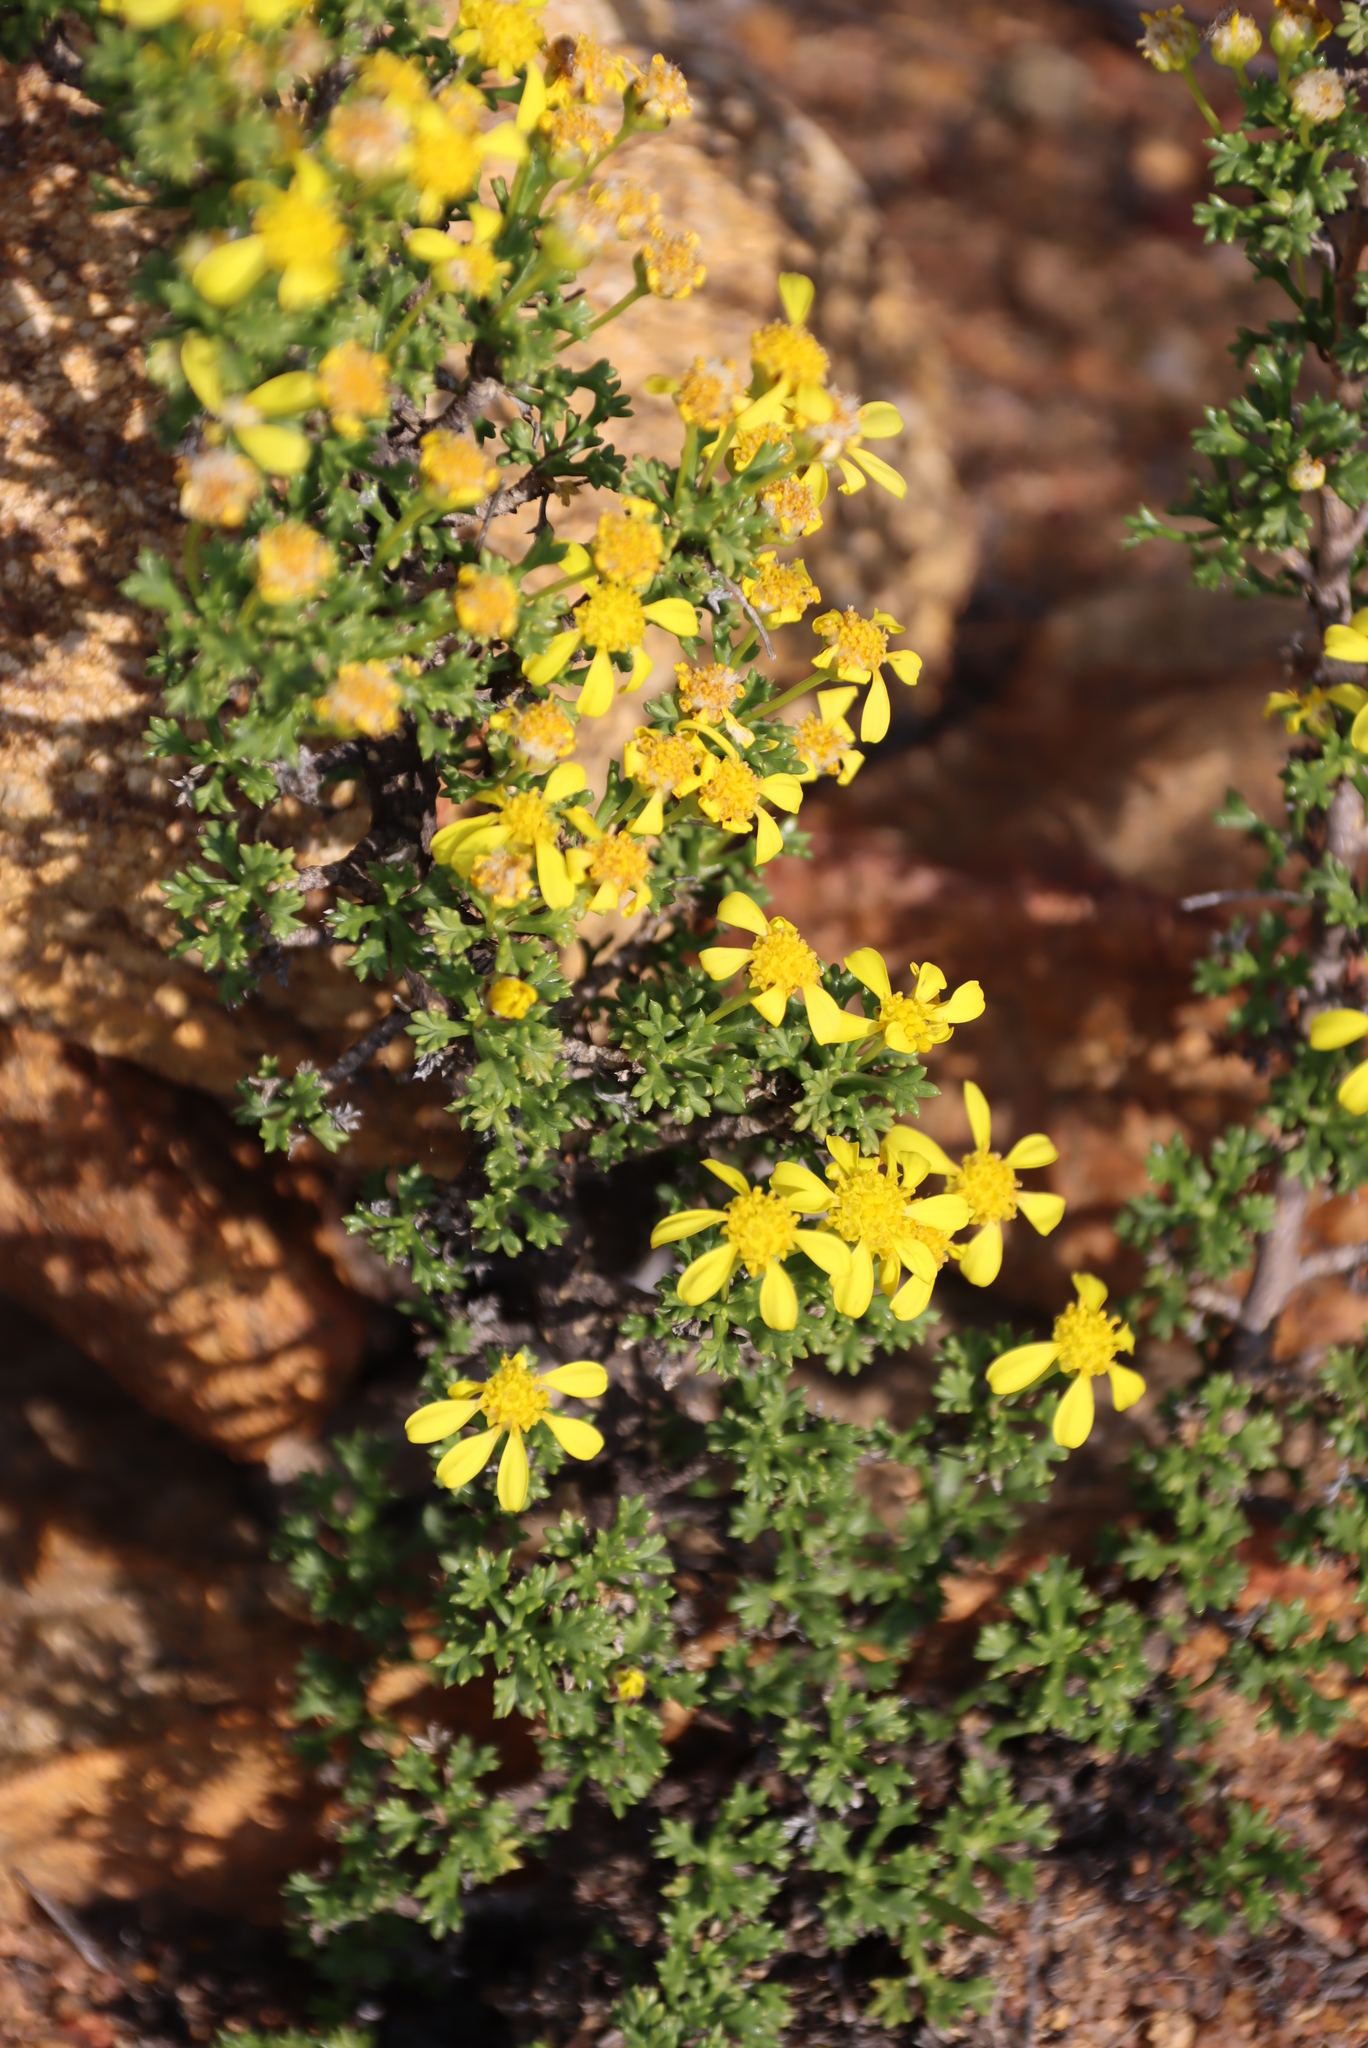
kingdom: Plantae
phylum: Tracheophyta
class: Magnoliopsida
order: Asterales
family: Asteraceae
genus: Euryops
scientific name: Euryops multifidus
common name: Hawk's eye
